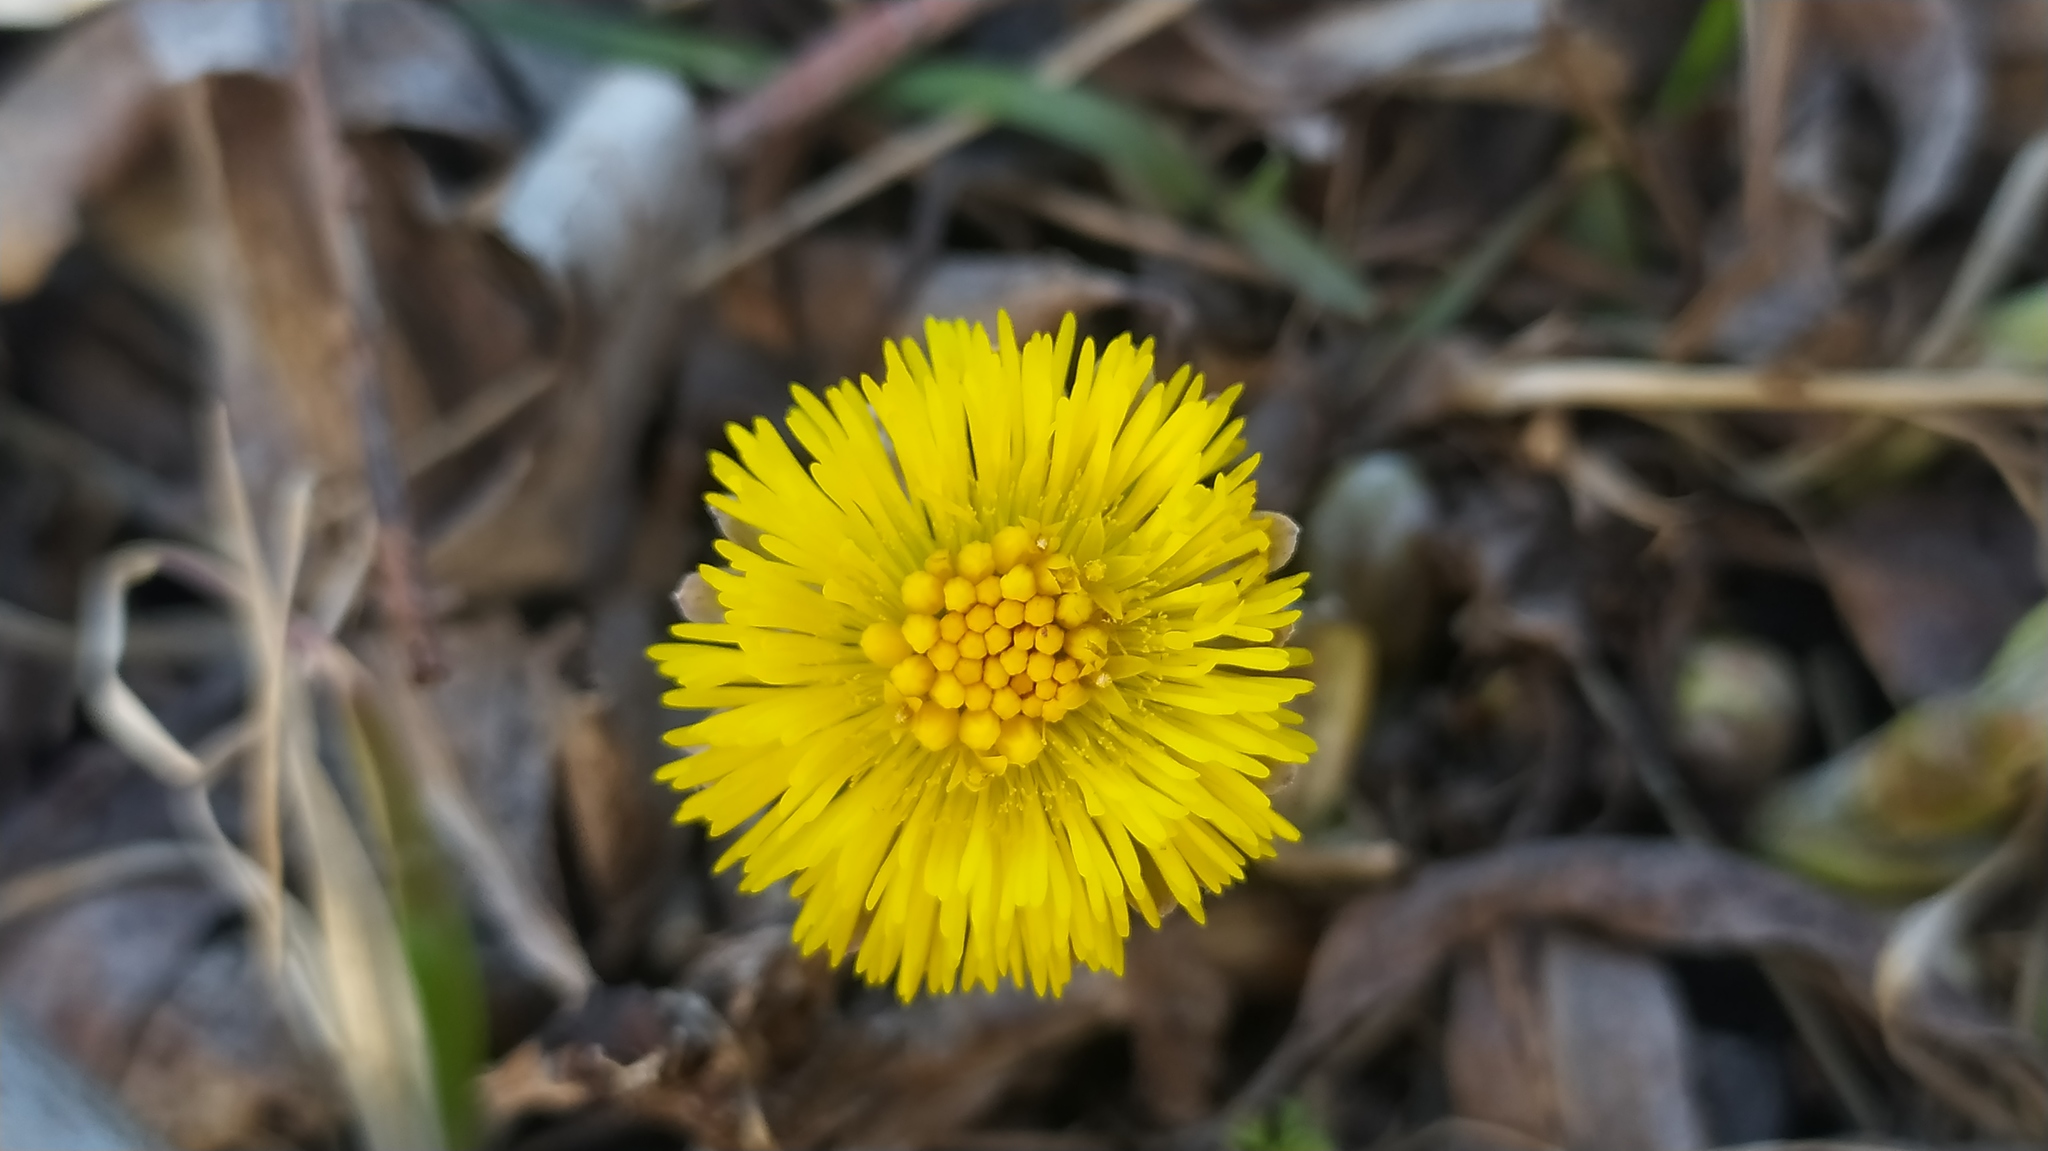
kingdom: Plantae
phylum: Tracheophyta
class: Magnoliopsida
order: Asterales
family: Asteraceae
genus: Tussilago
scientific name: Tussilago farfara
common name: Coltsfoot
